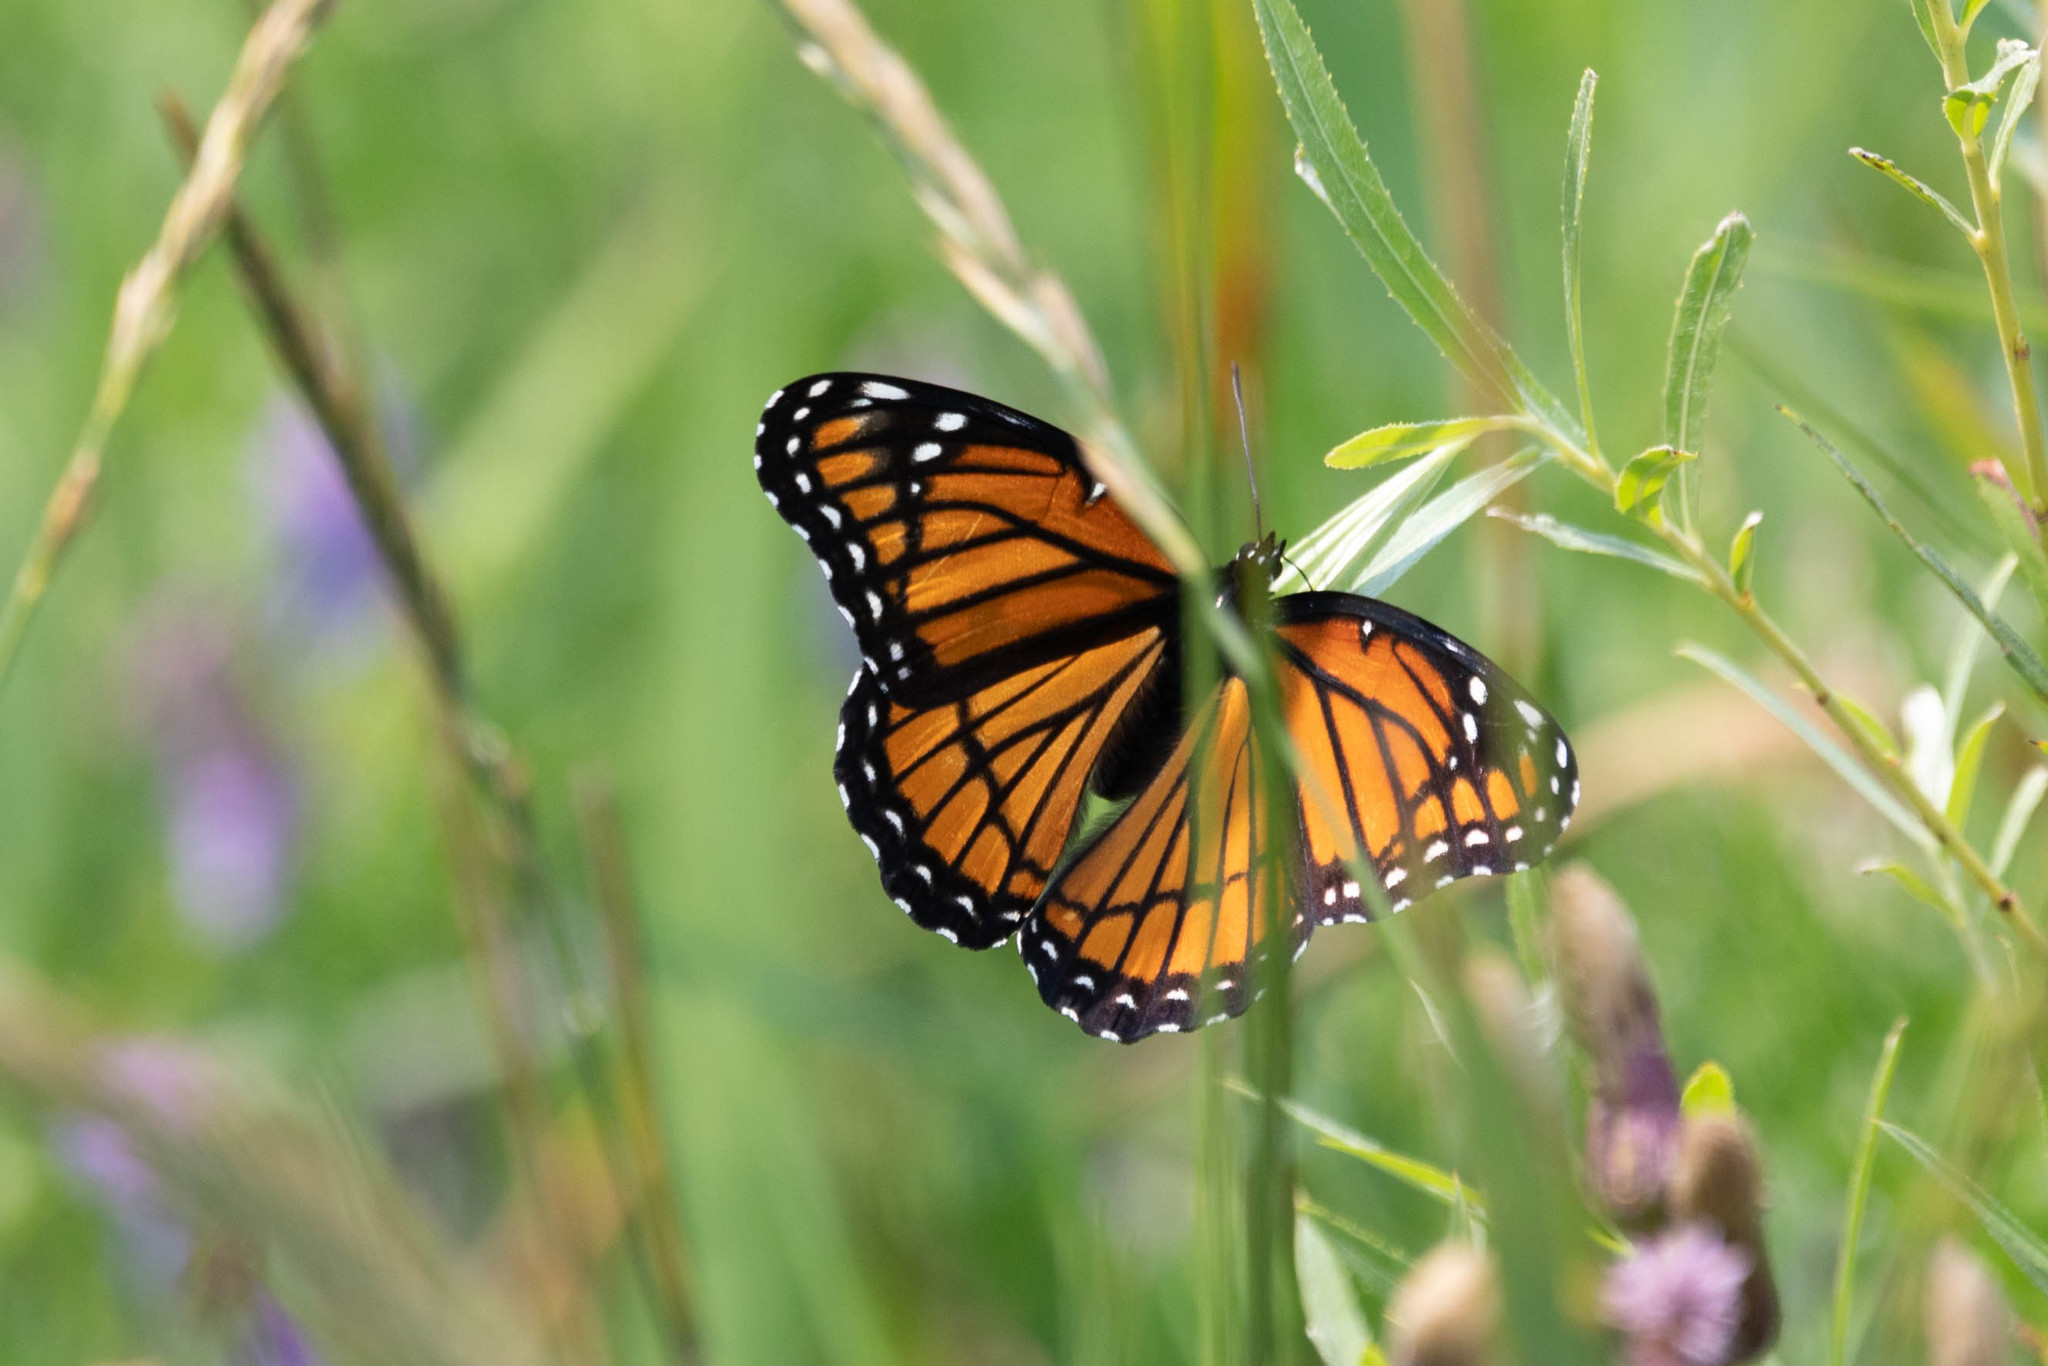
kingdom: Animalia
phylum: Arthropoda
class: Insecta
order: Lepidoptera
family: Nymphalidae
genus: Limenitis
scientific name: Limenitis archippus
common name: Viceroy
